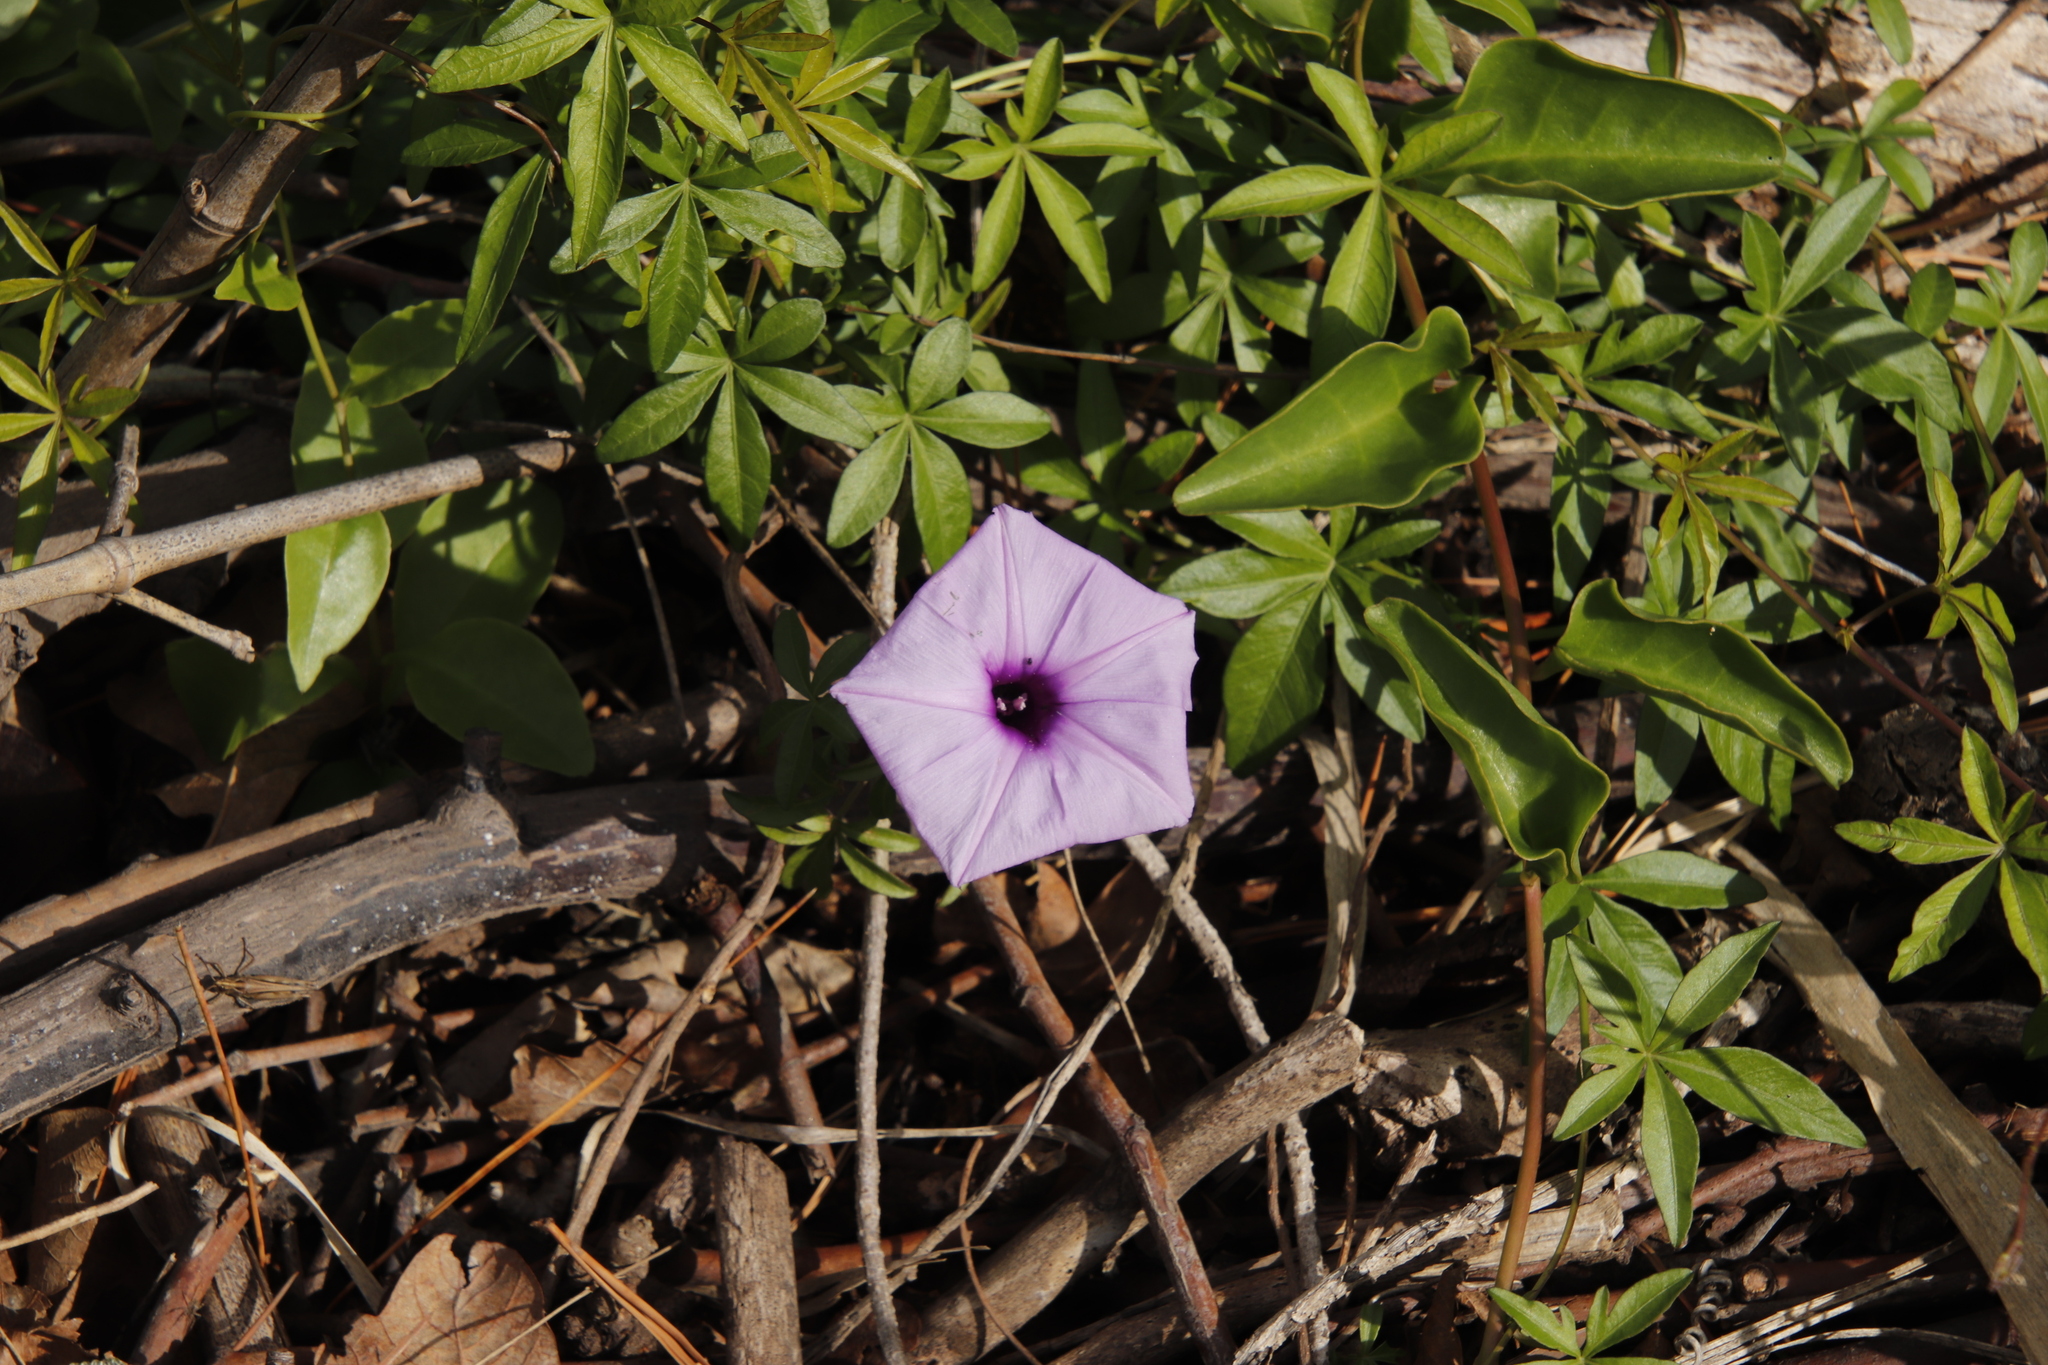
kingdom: Plantae
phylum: Tracheophyta
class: Magnoliopsida
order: Solanales
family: Convolvulaceae
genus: Ipomoea
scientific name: Ipomoea cairica
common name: Mile a minute vine
